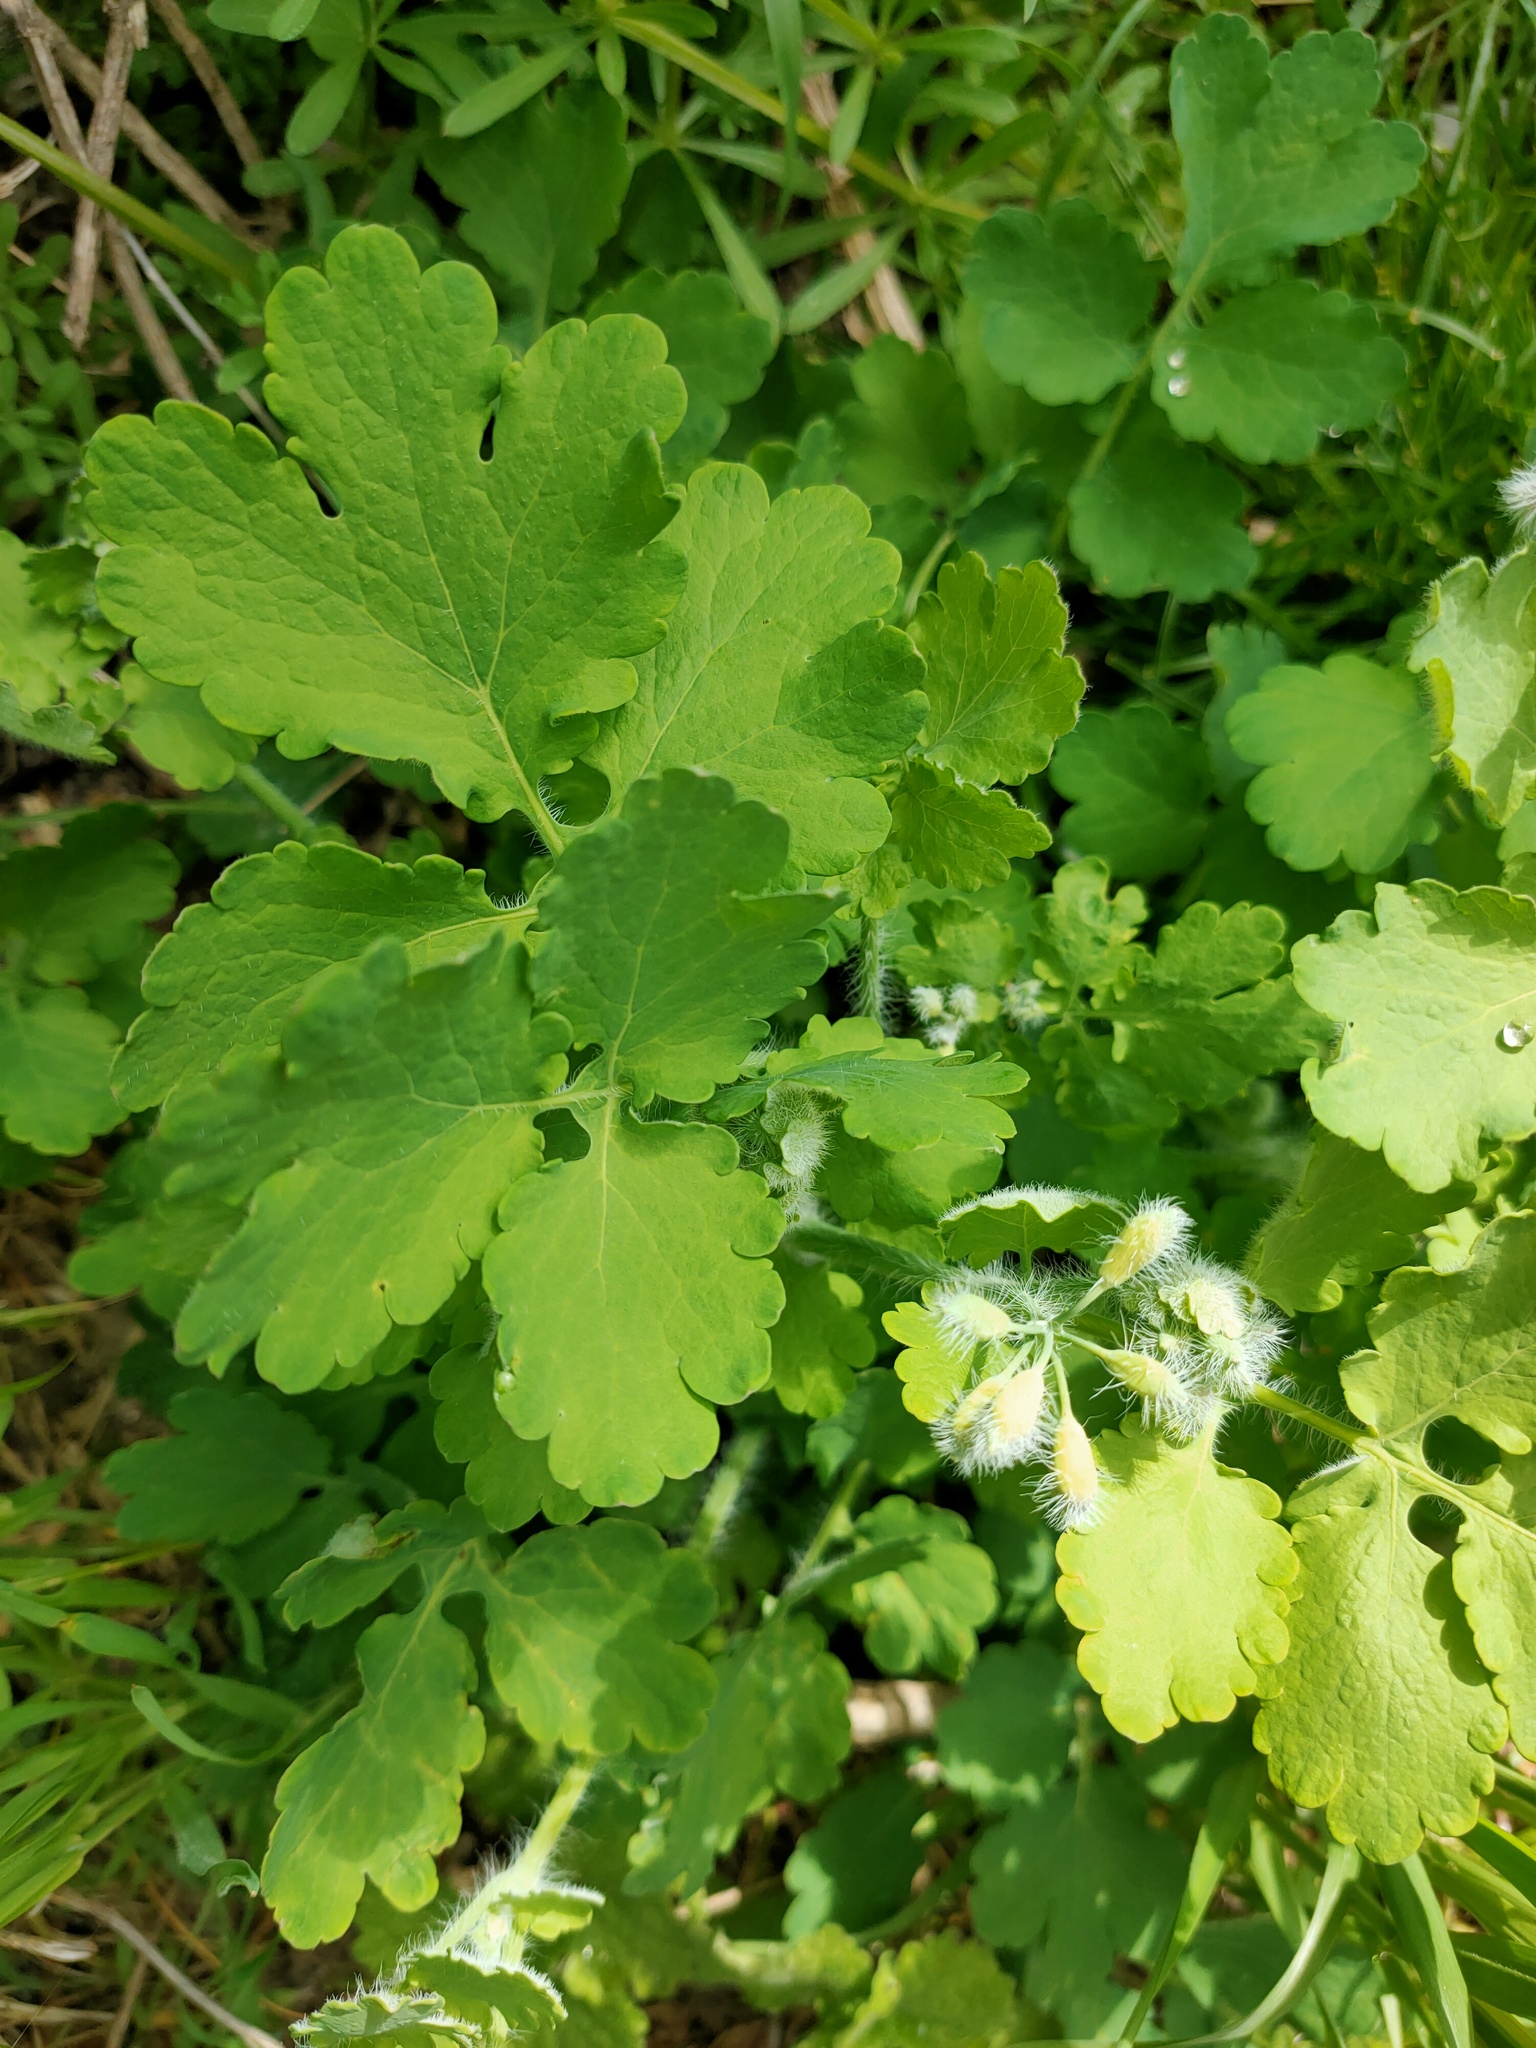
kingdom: Plantae
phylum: Tracheophyta
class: Magnoliopsida
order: Ranunculales
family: Papaveraceae
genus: Chelidonium
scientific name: Chelidonium majus
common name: Greater celandine
